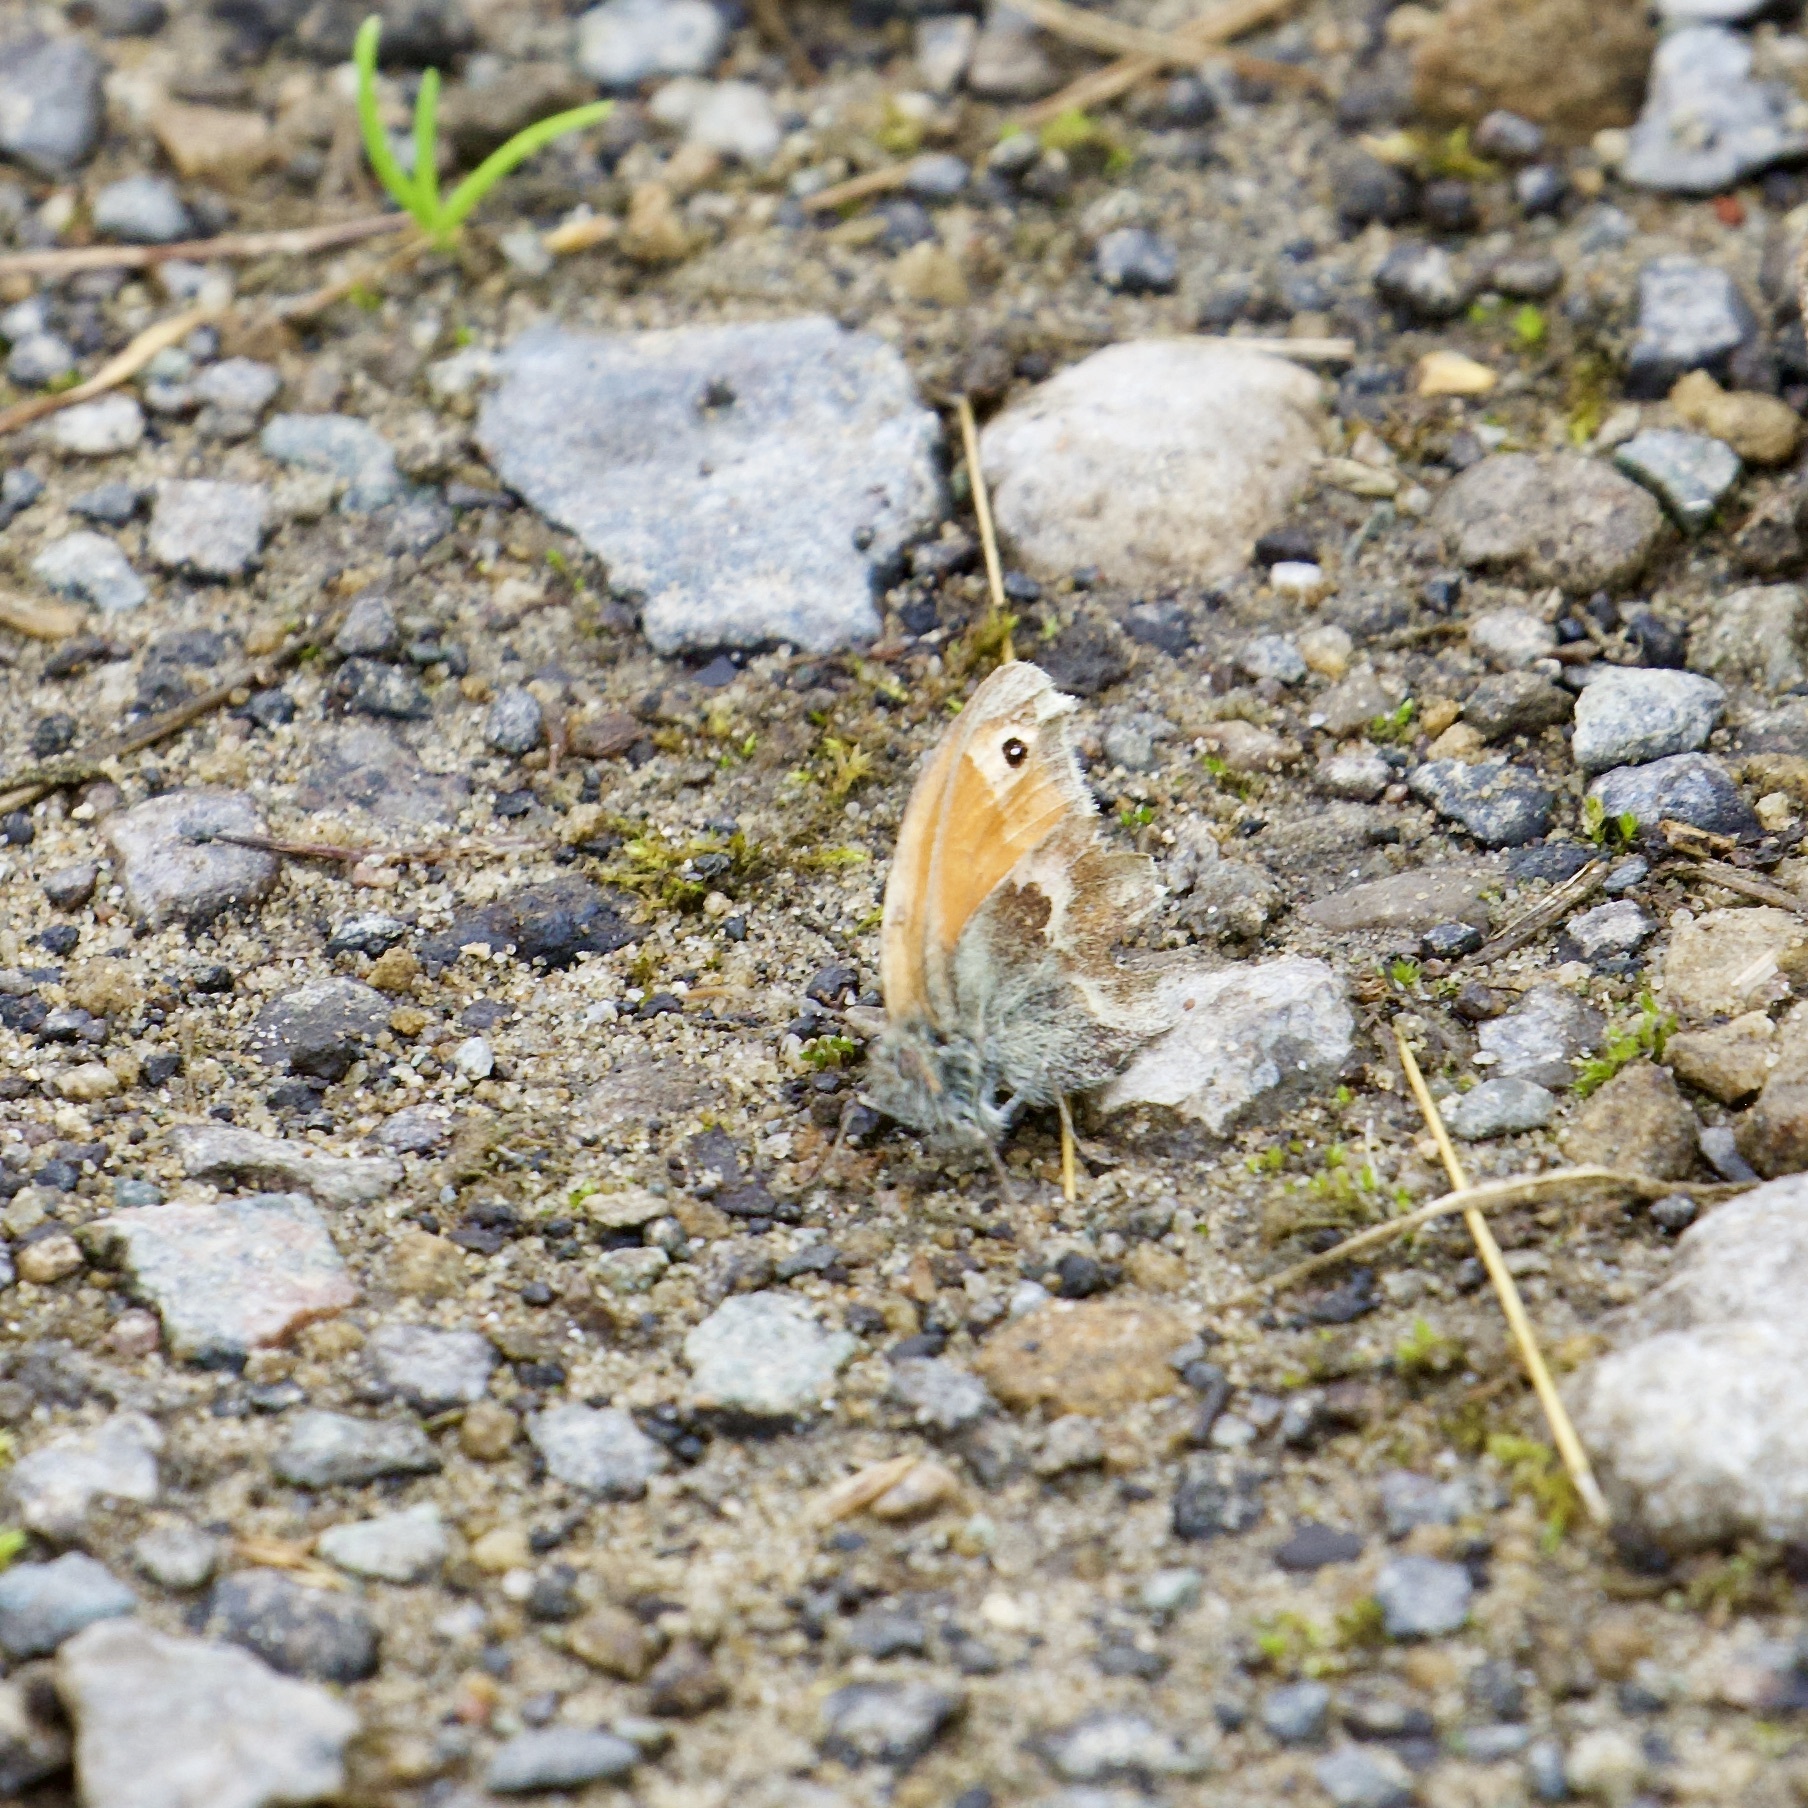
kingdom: Animalia
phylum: Arthropoda
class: Insecta
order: Lepidoptera
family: Nymphalidae
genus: Coenonympha
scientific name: Coenonympha pamphilus
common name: Small heath
